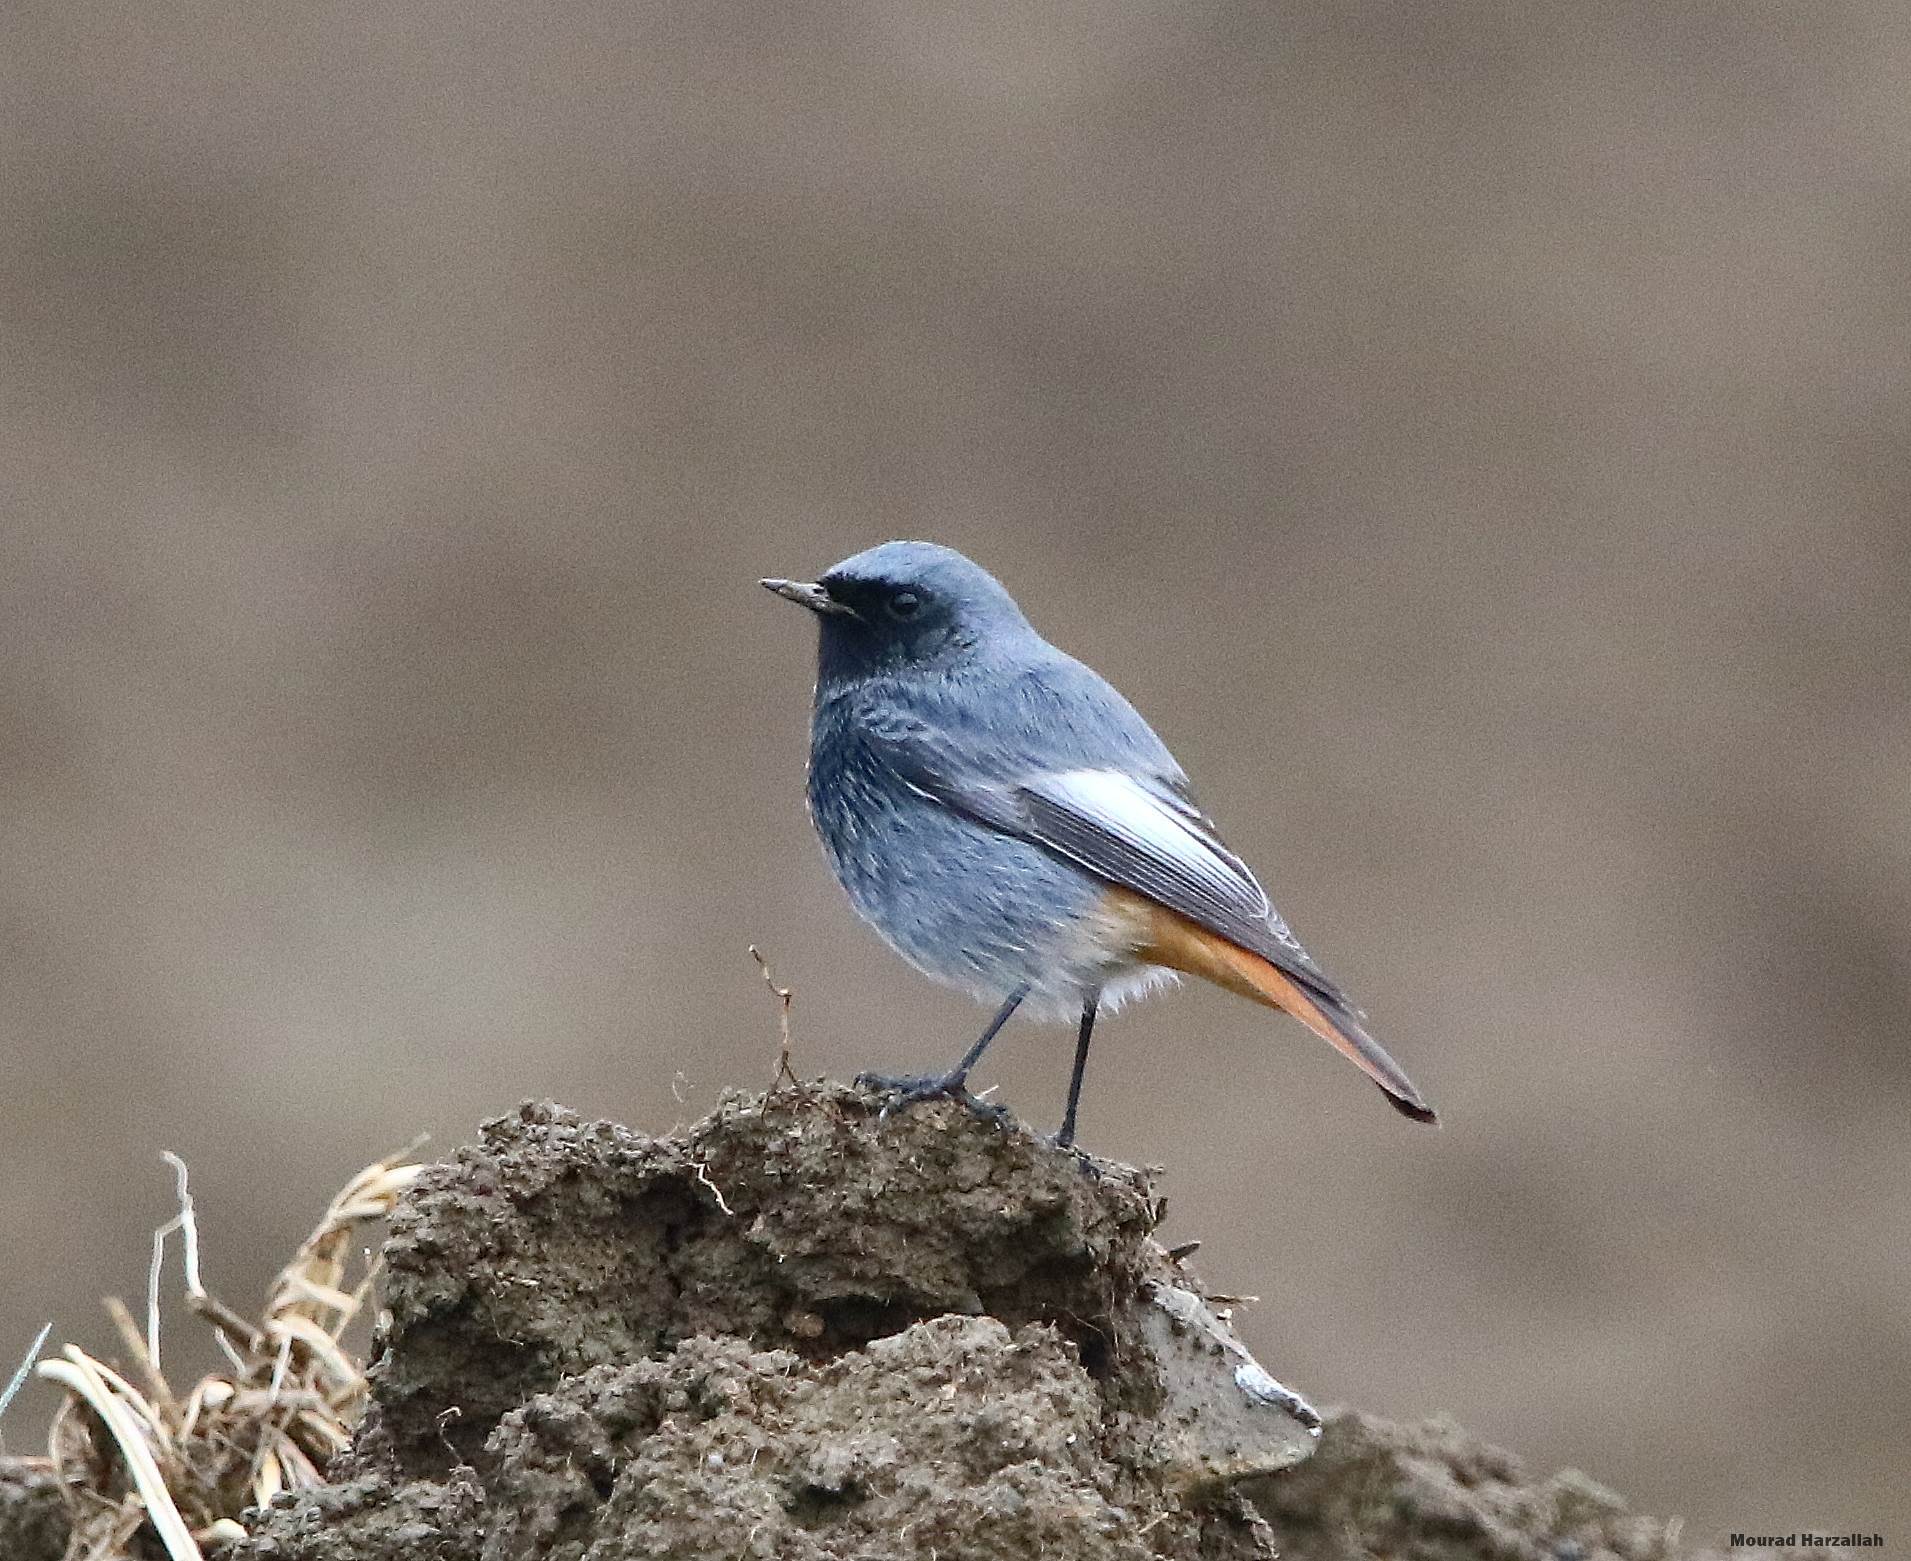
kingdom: Animalia
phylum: Chordata
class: Aves
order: Passeriformes
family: Muscicapidae
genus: Phoenicurus
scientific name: Phoenicurus ochruros
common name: Black redstart
